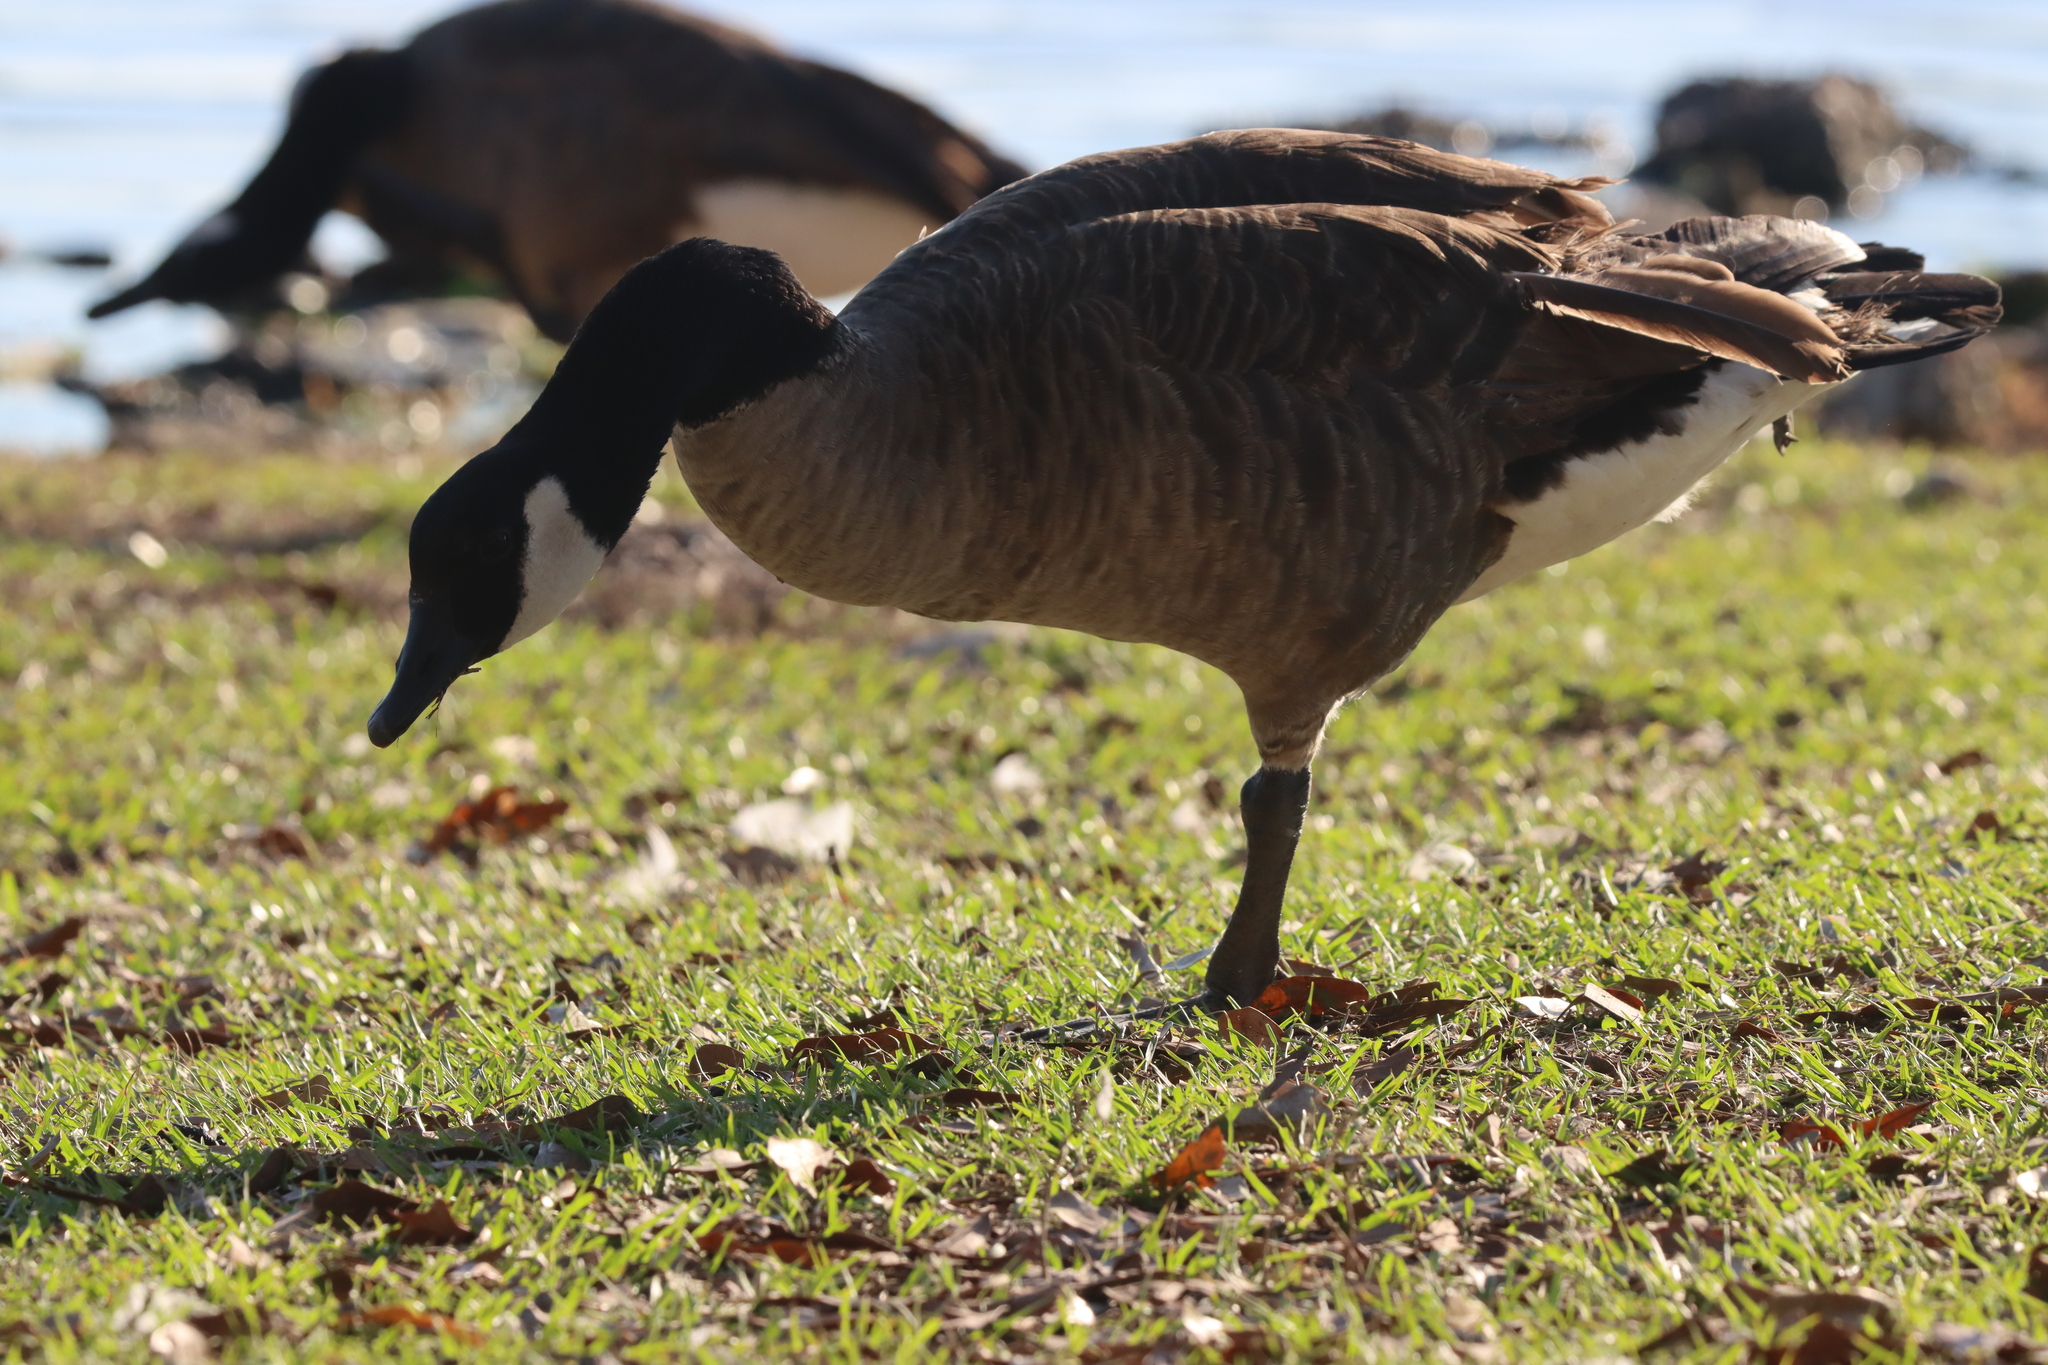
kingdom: Animalia
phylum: Chordata
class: Aves
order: Anseriformes
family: Anatidae
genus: Branta
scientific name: Branta canadensis
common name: Canada goose
